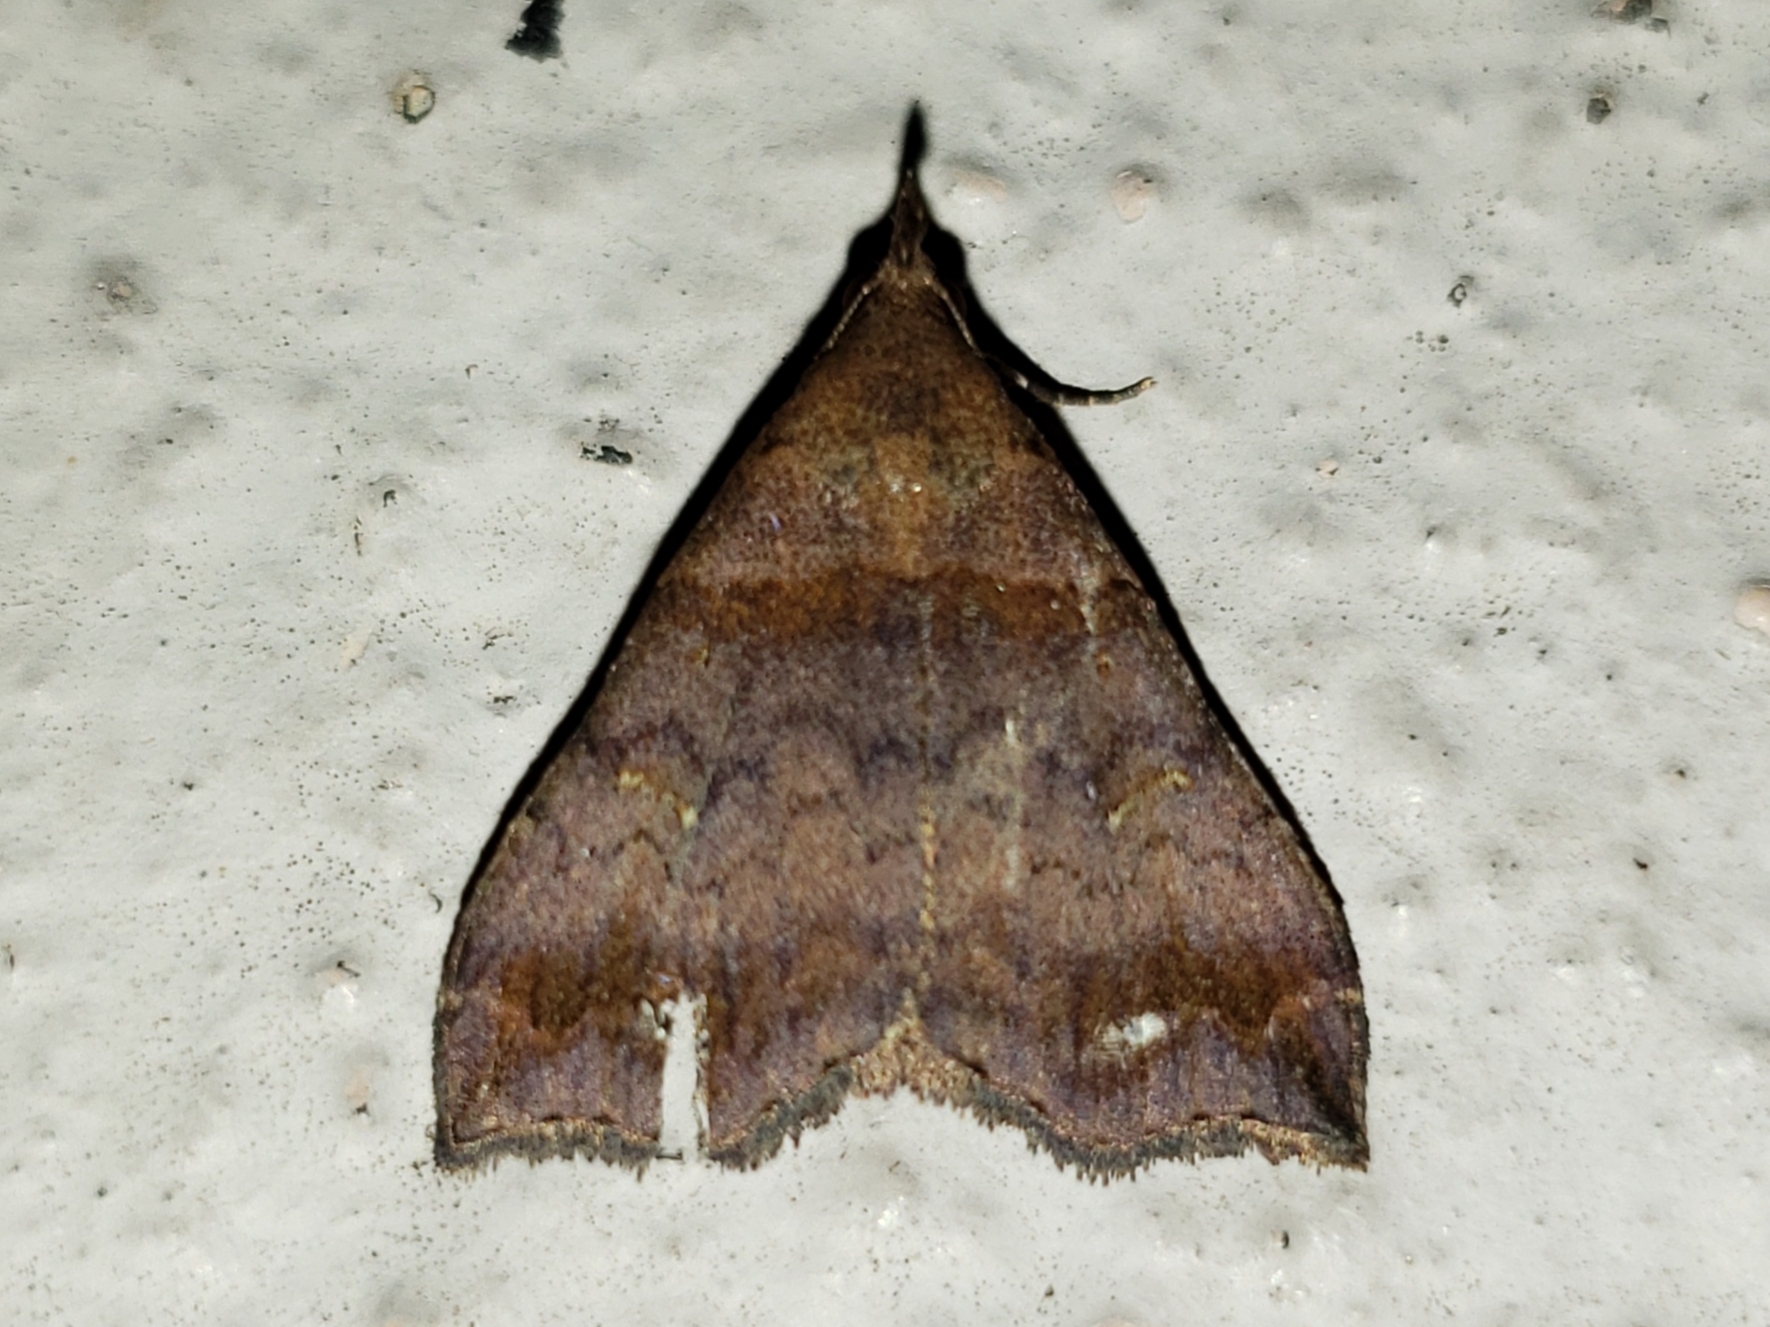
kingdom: Animalia
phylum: Arthropoda
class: Insecta
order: Lepidoptera
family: Erebidae
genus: Lascoria
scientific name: Lascoria ambigualis
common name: Ambiguous moth
